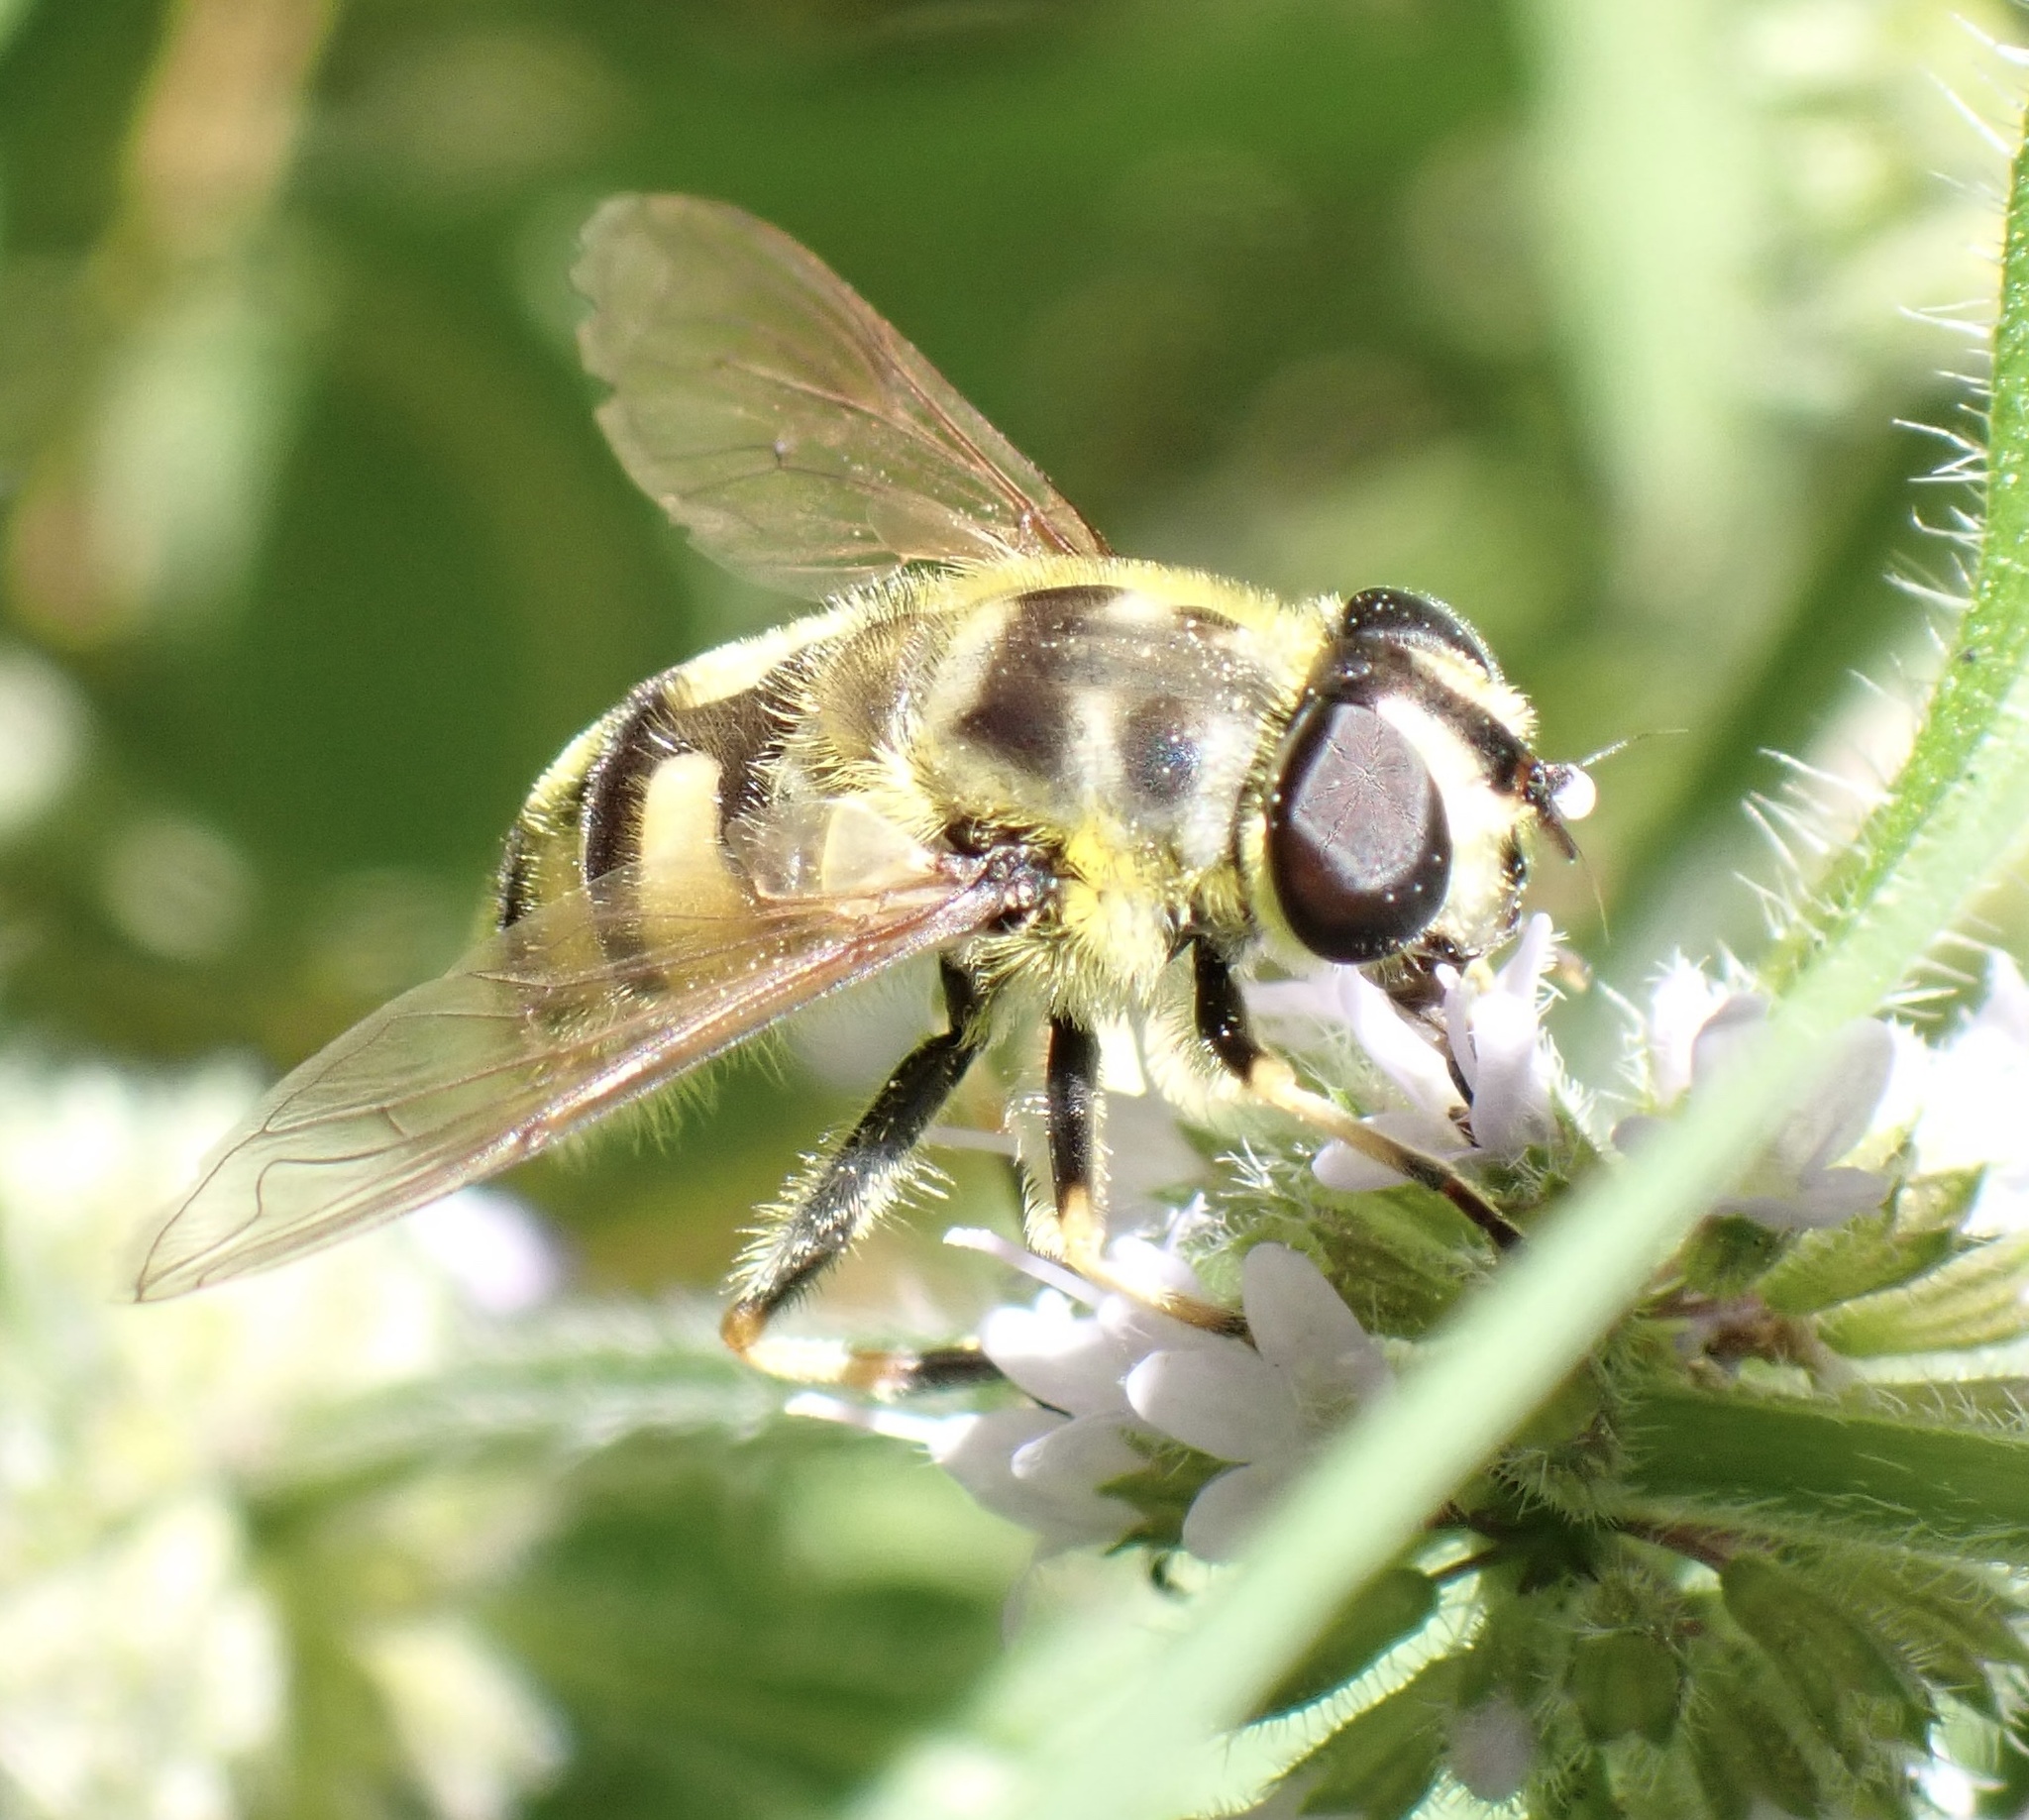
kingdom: Animalia
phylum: Arthropoda
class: Insecta
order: Diptera
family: Syrphidae
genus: Myathropa
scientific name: Myathropa florea
